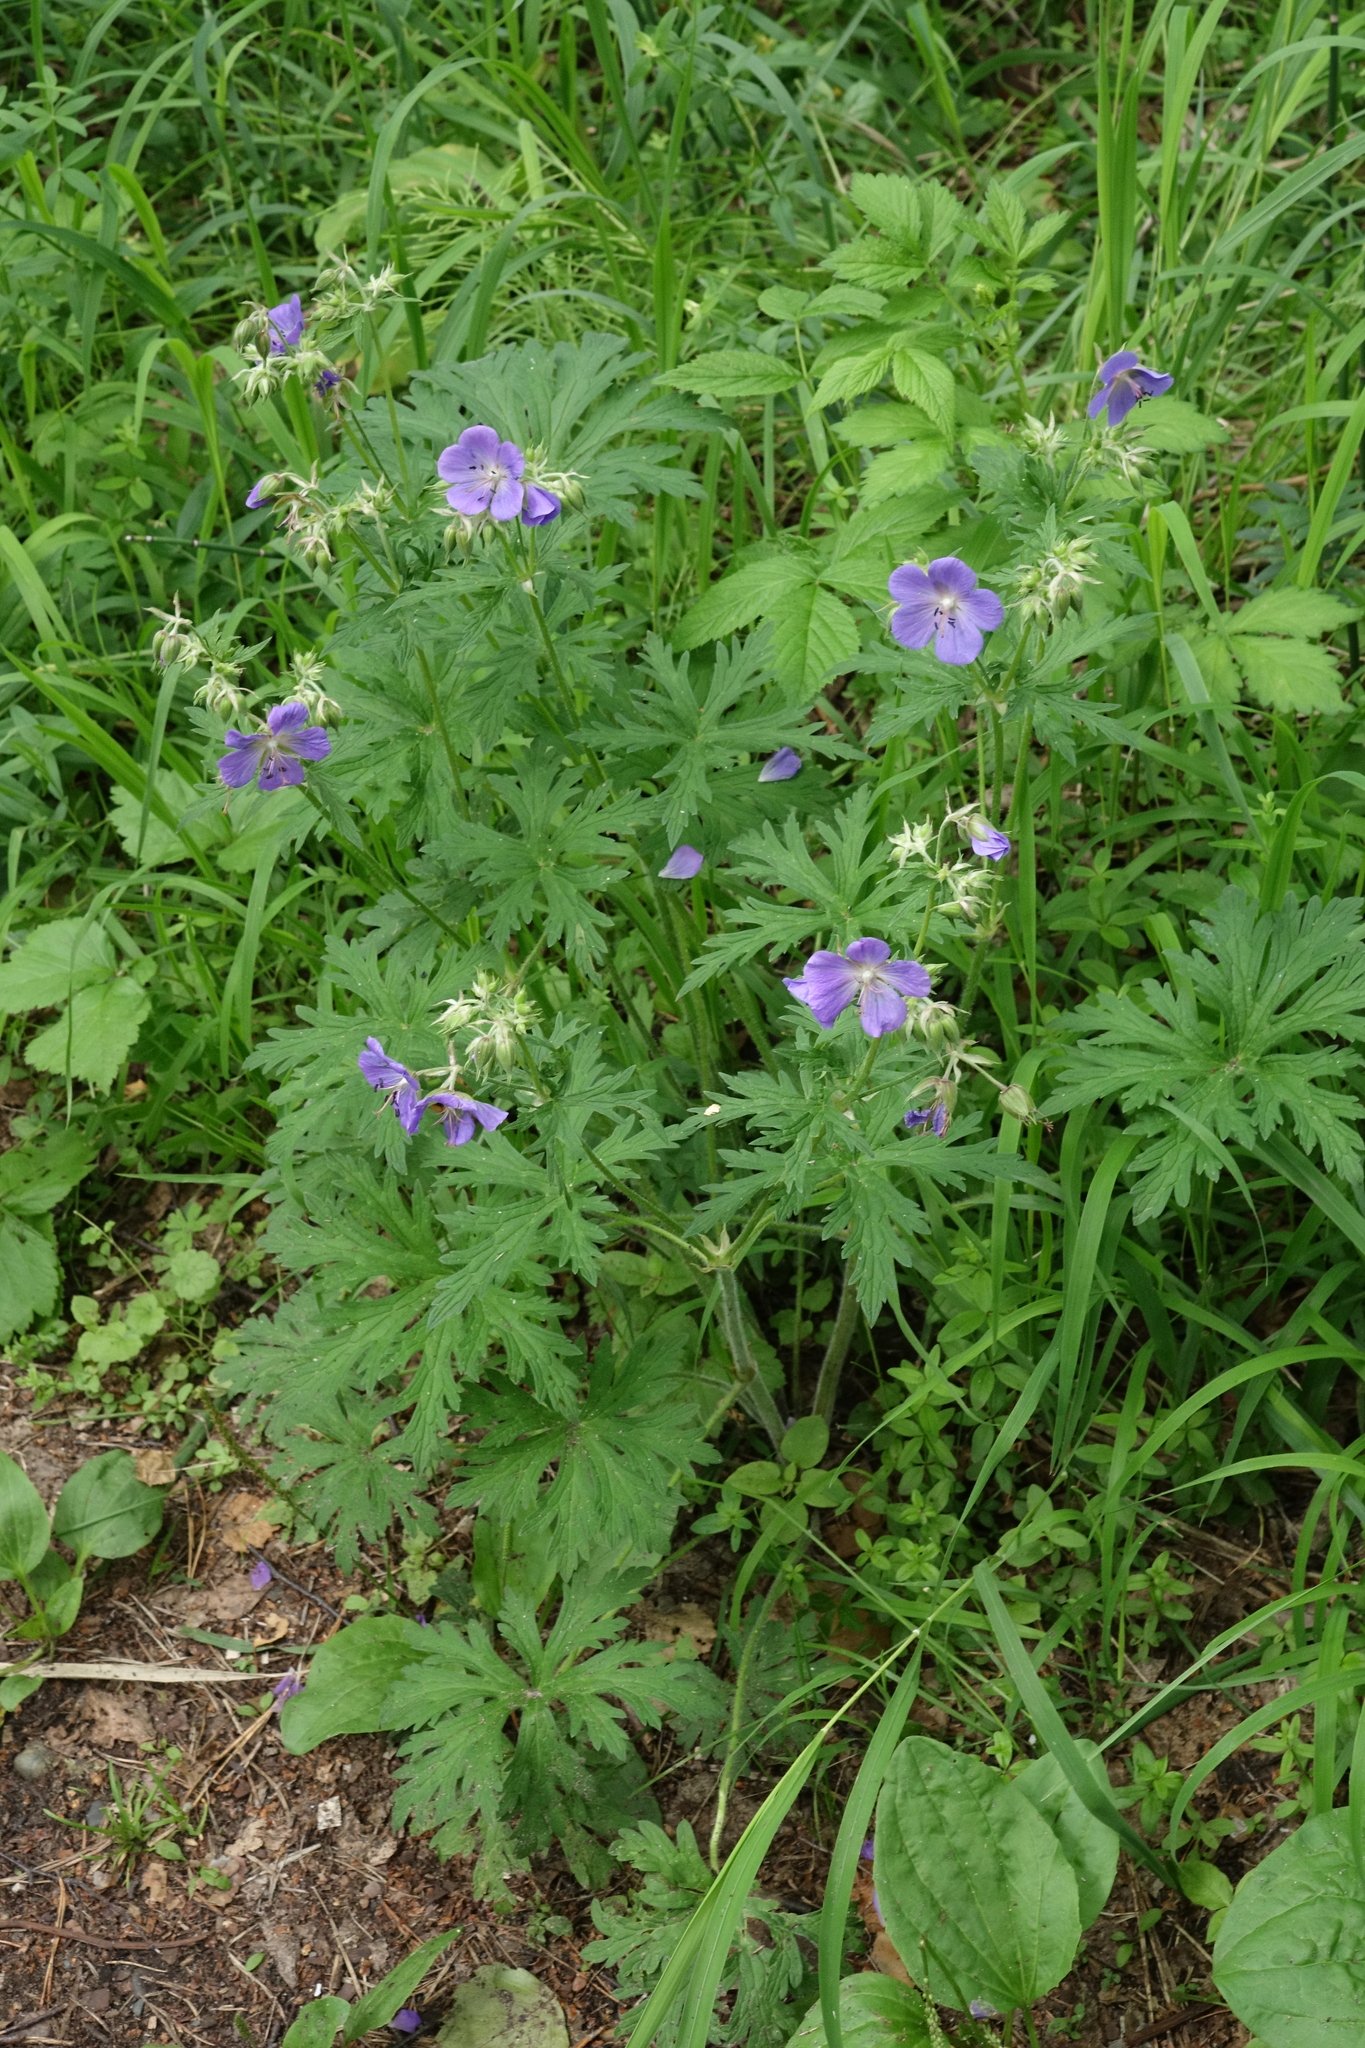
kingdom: Plantae
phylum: Tracheophyta
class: Magnoliopsida
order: Geraniales
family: Geraniaceae
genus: Geranium
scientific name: Geranium pratense
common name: Meadow crane's-bill
